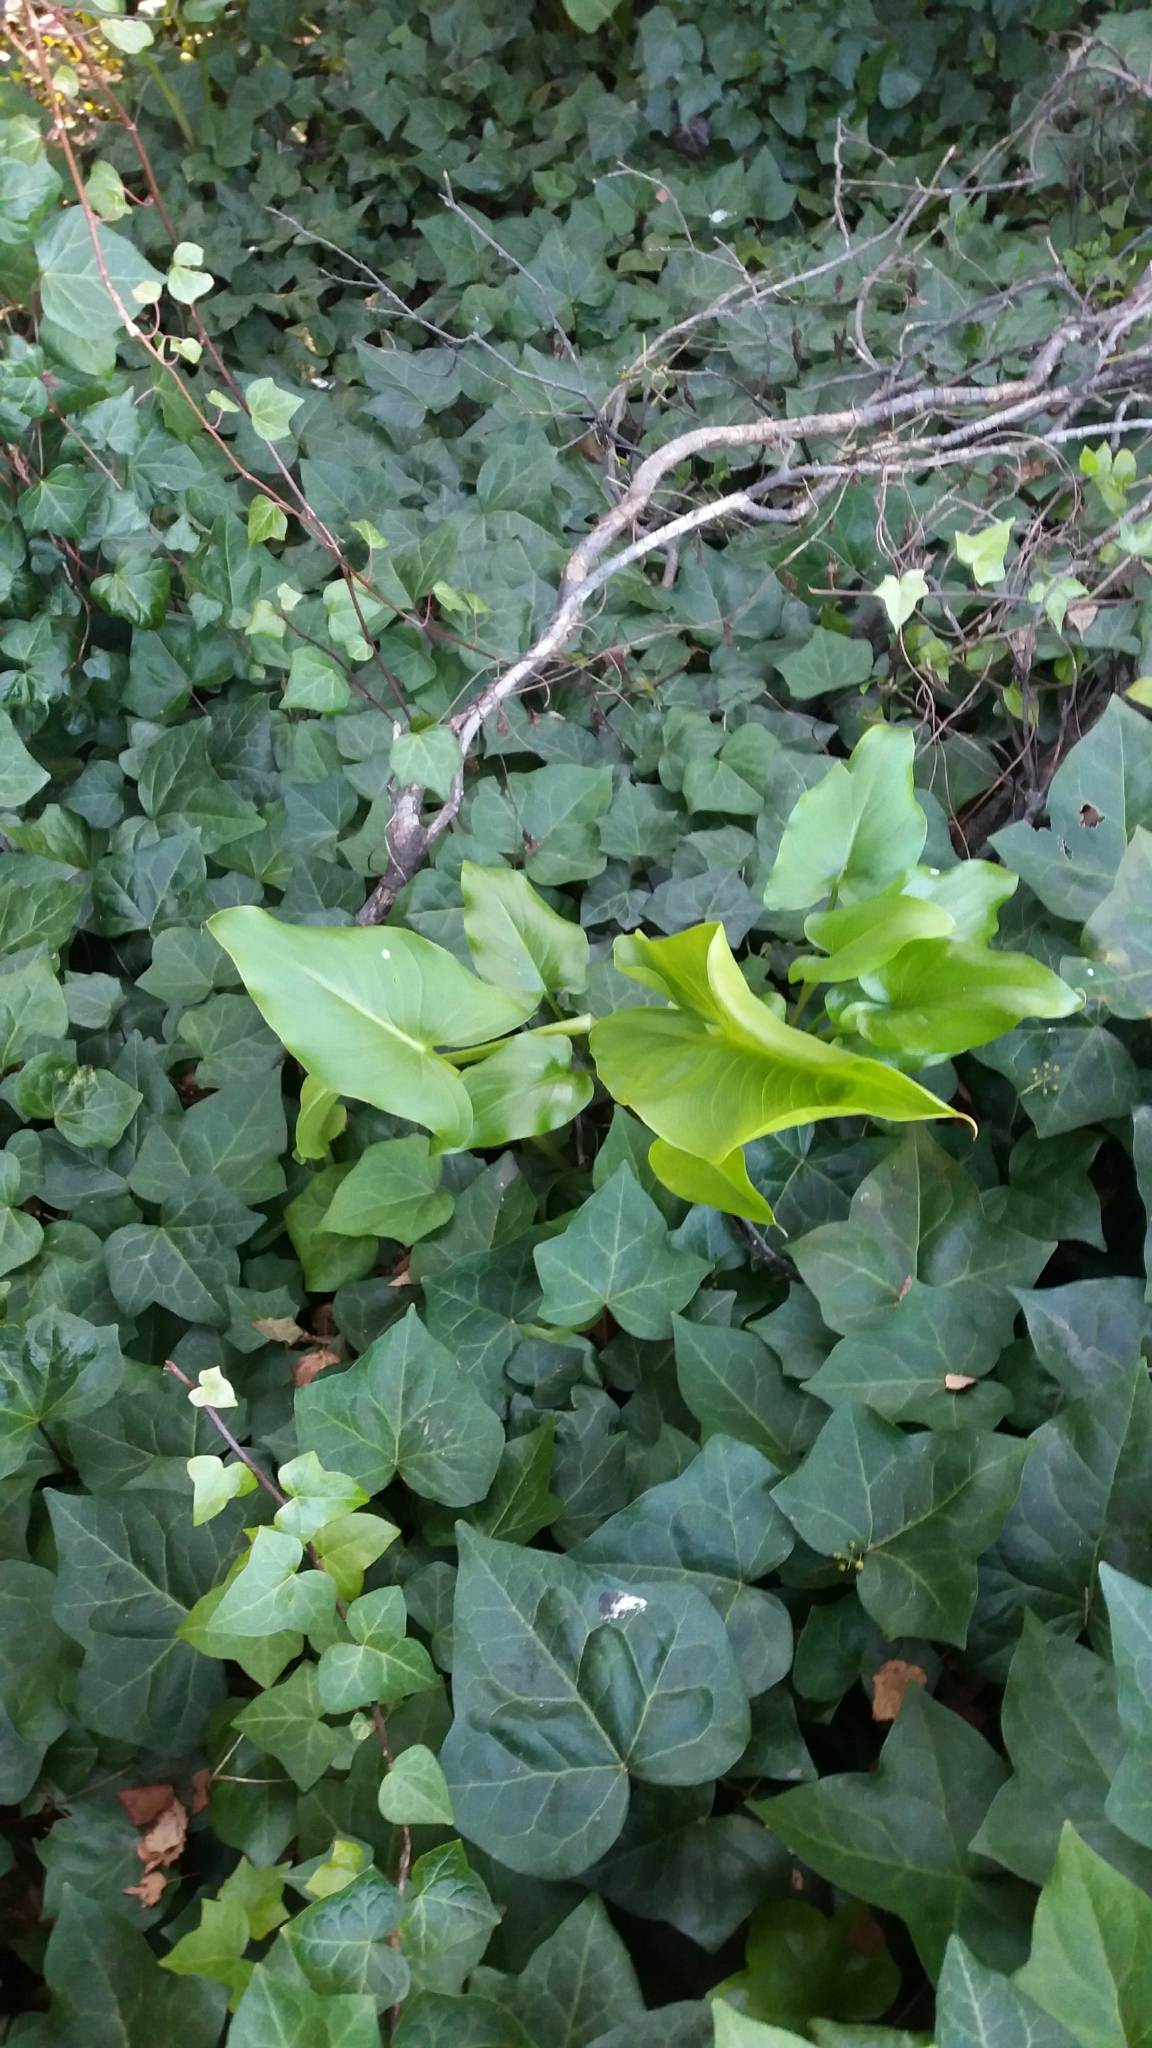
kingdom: Plantae
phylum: Tracheophyta
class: Liliopsida
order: Alismatales
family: Araceae
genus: Zantedeschia
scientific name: Zantedeschia aethiopica
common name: Altar-lily
